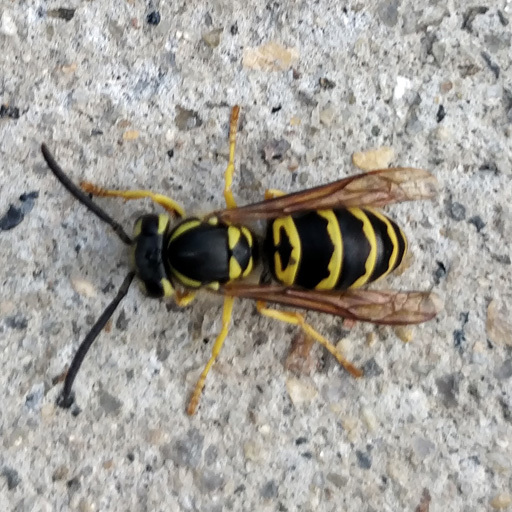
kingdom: Animalia
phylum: Arthropoda
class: Insecta
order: Hymenoptera
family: Vespidae
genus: Vespula
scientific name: Vespula maculifrons
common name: Eastern yellowjacket
